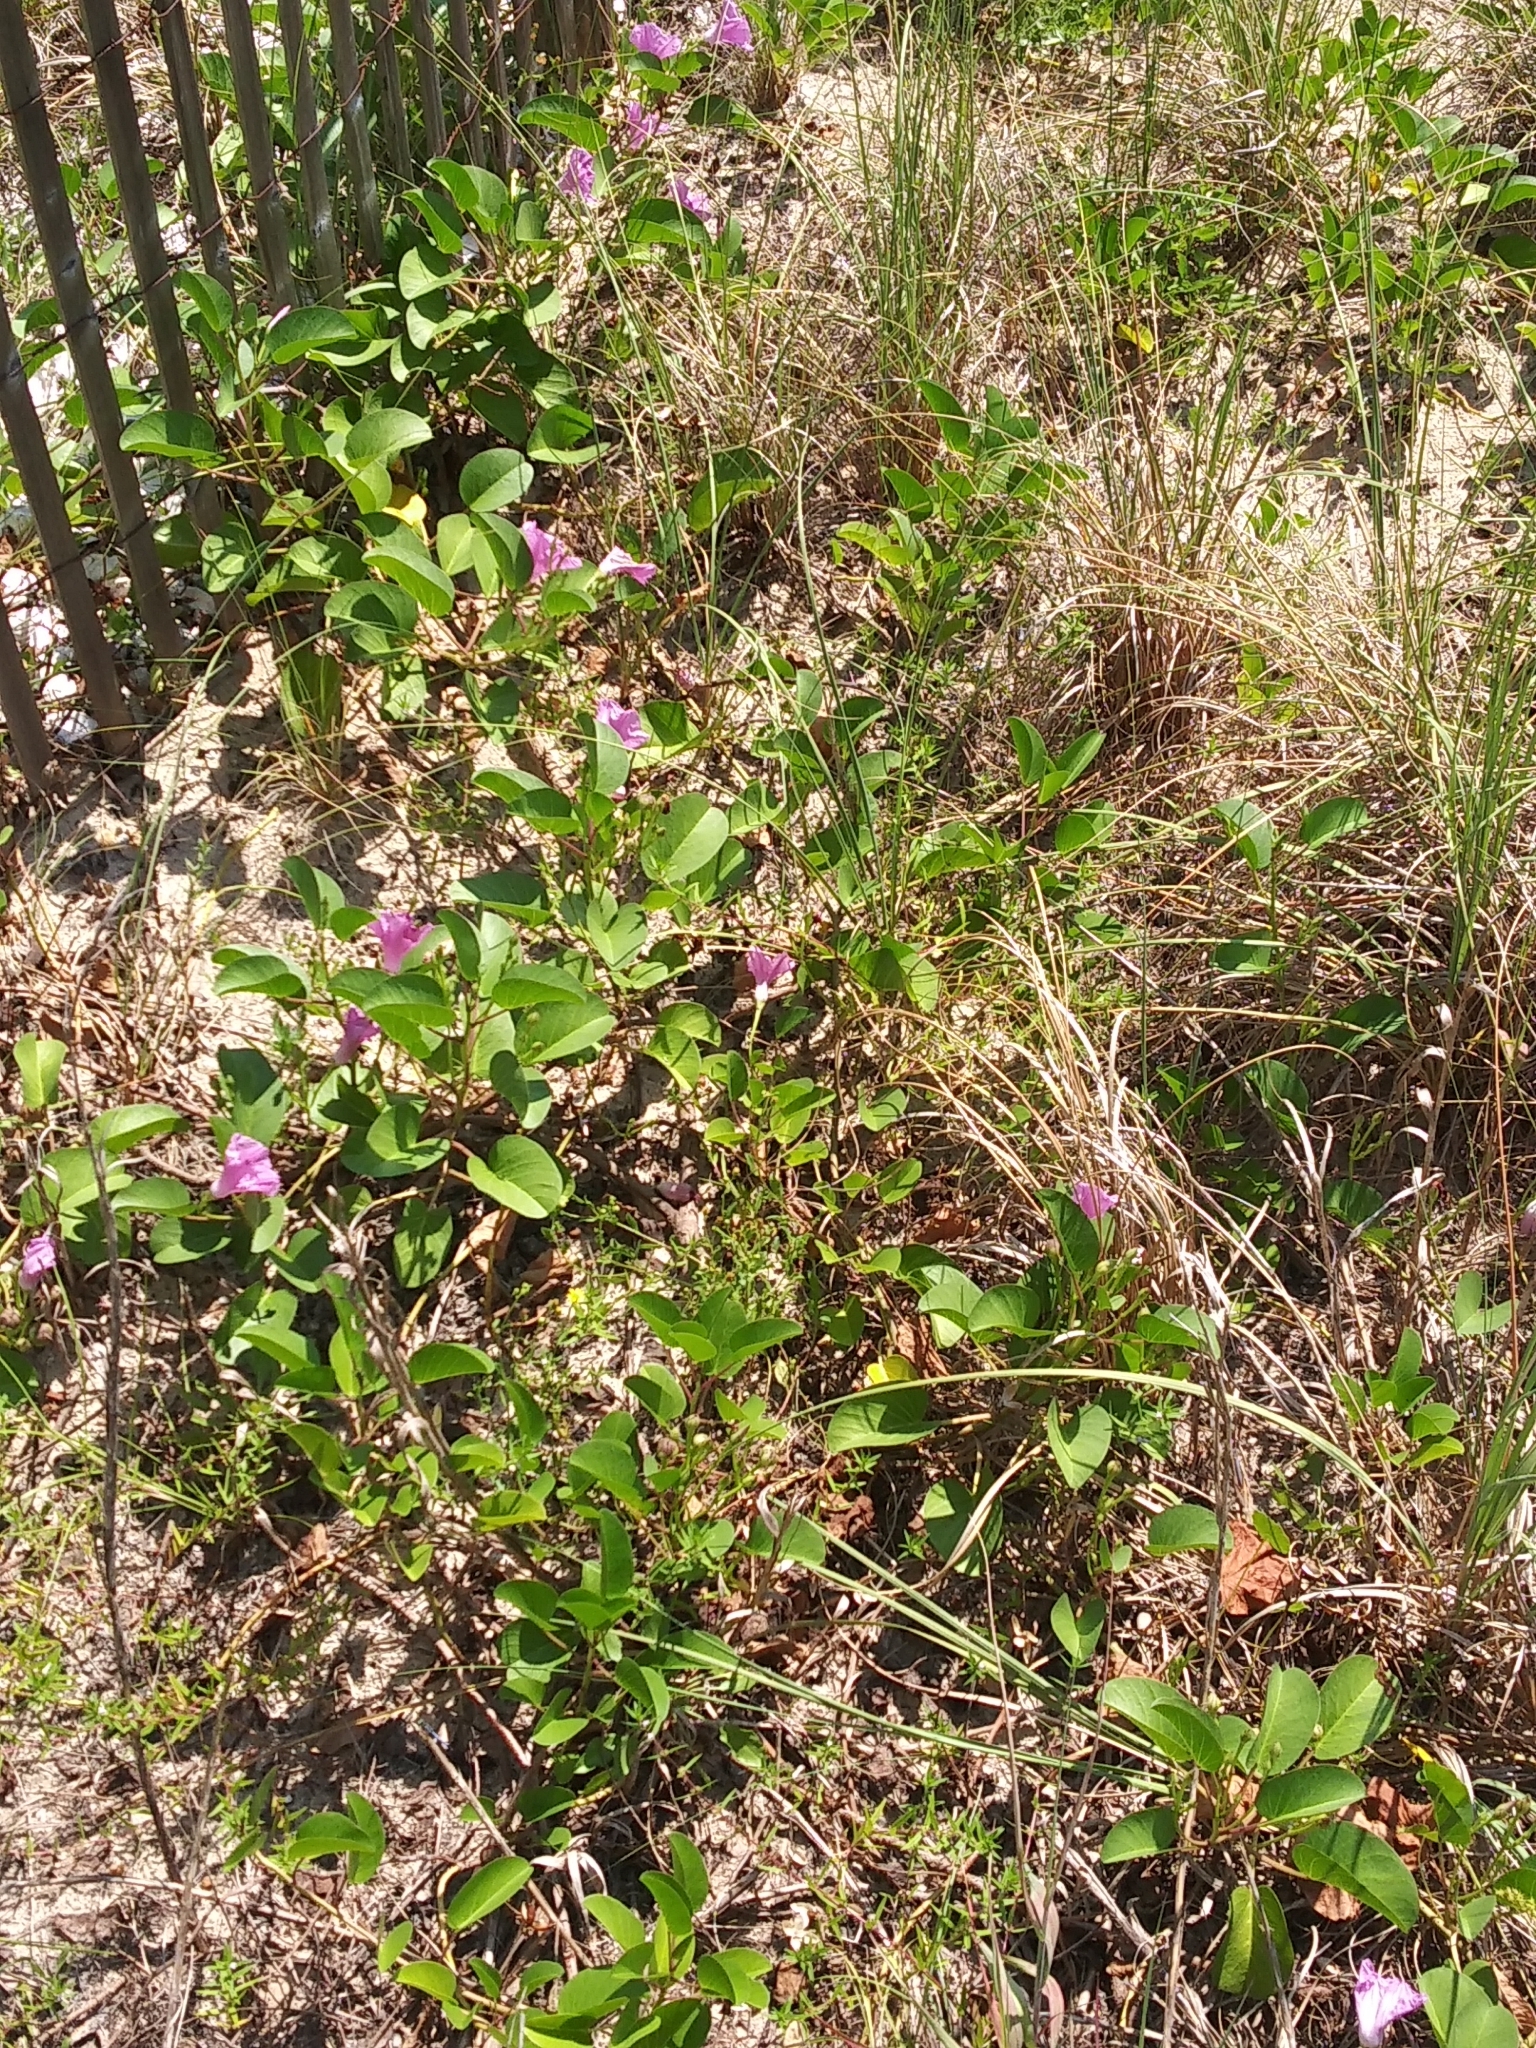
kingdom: Plantae
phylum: Tracheophyta
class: Magnoliopsida
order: Solanales
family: Convolvulaceae
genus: Ipomoea
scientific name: Ipomoea pes-caprae
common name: Beach morning glory
